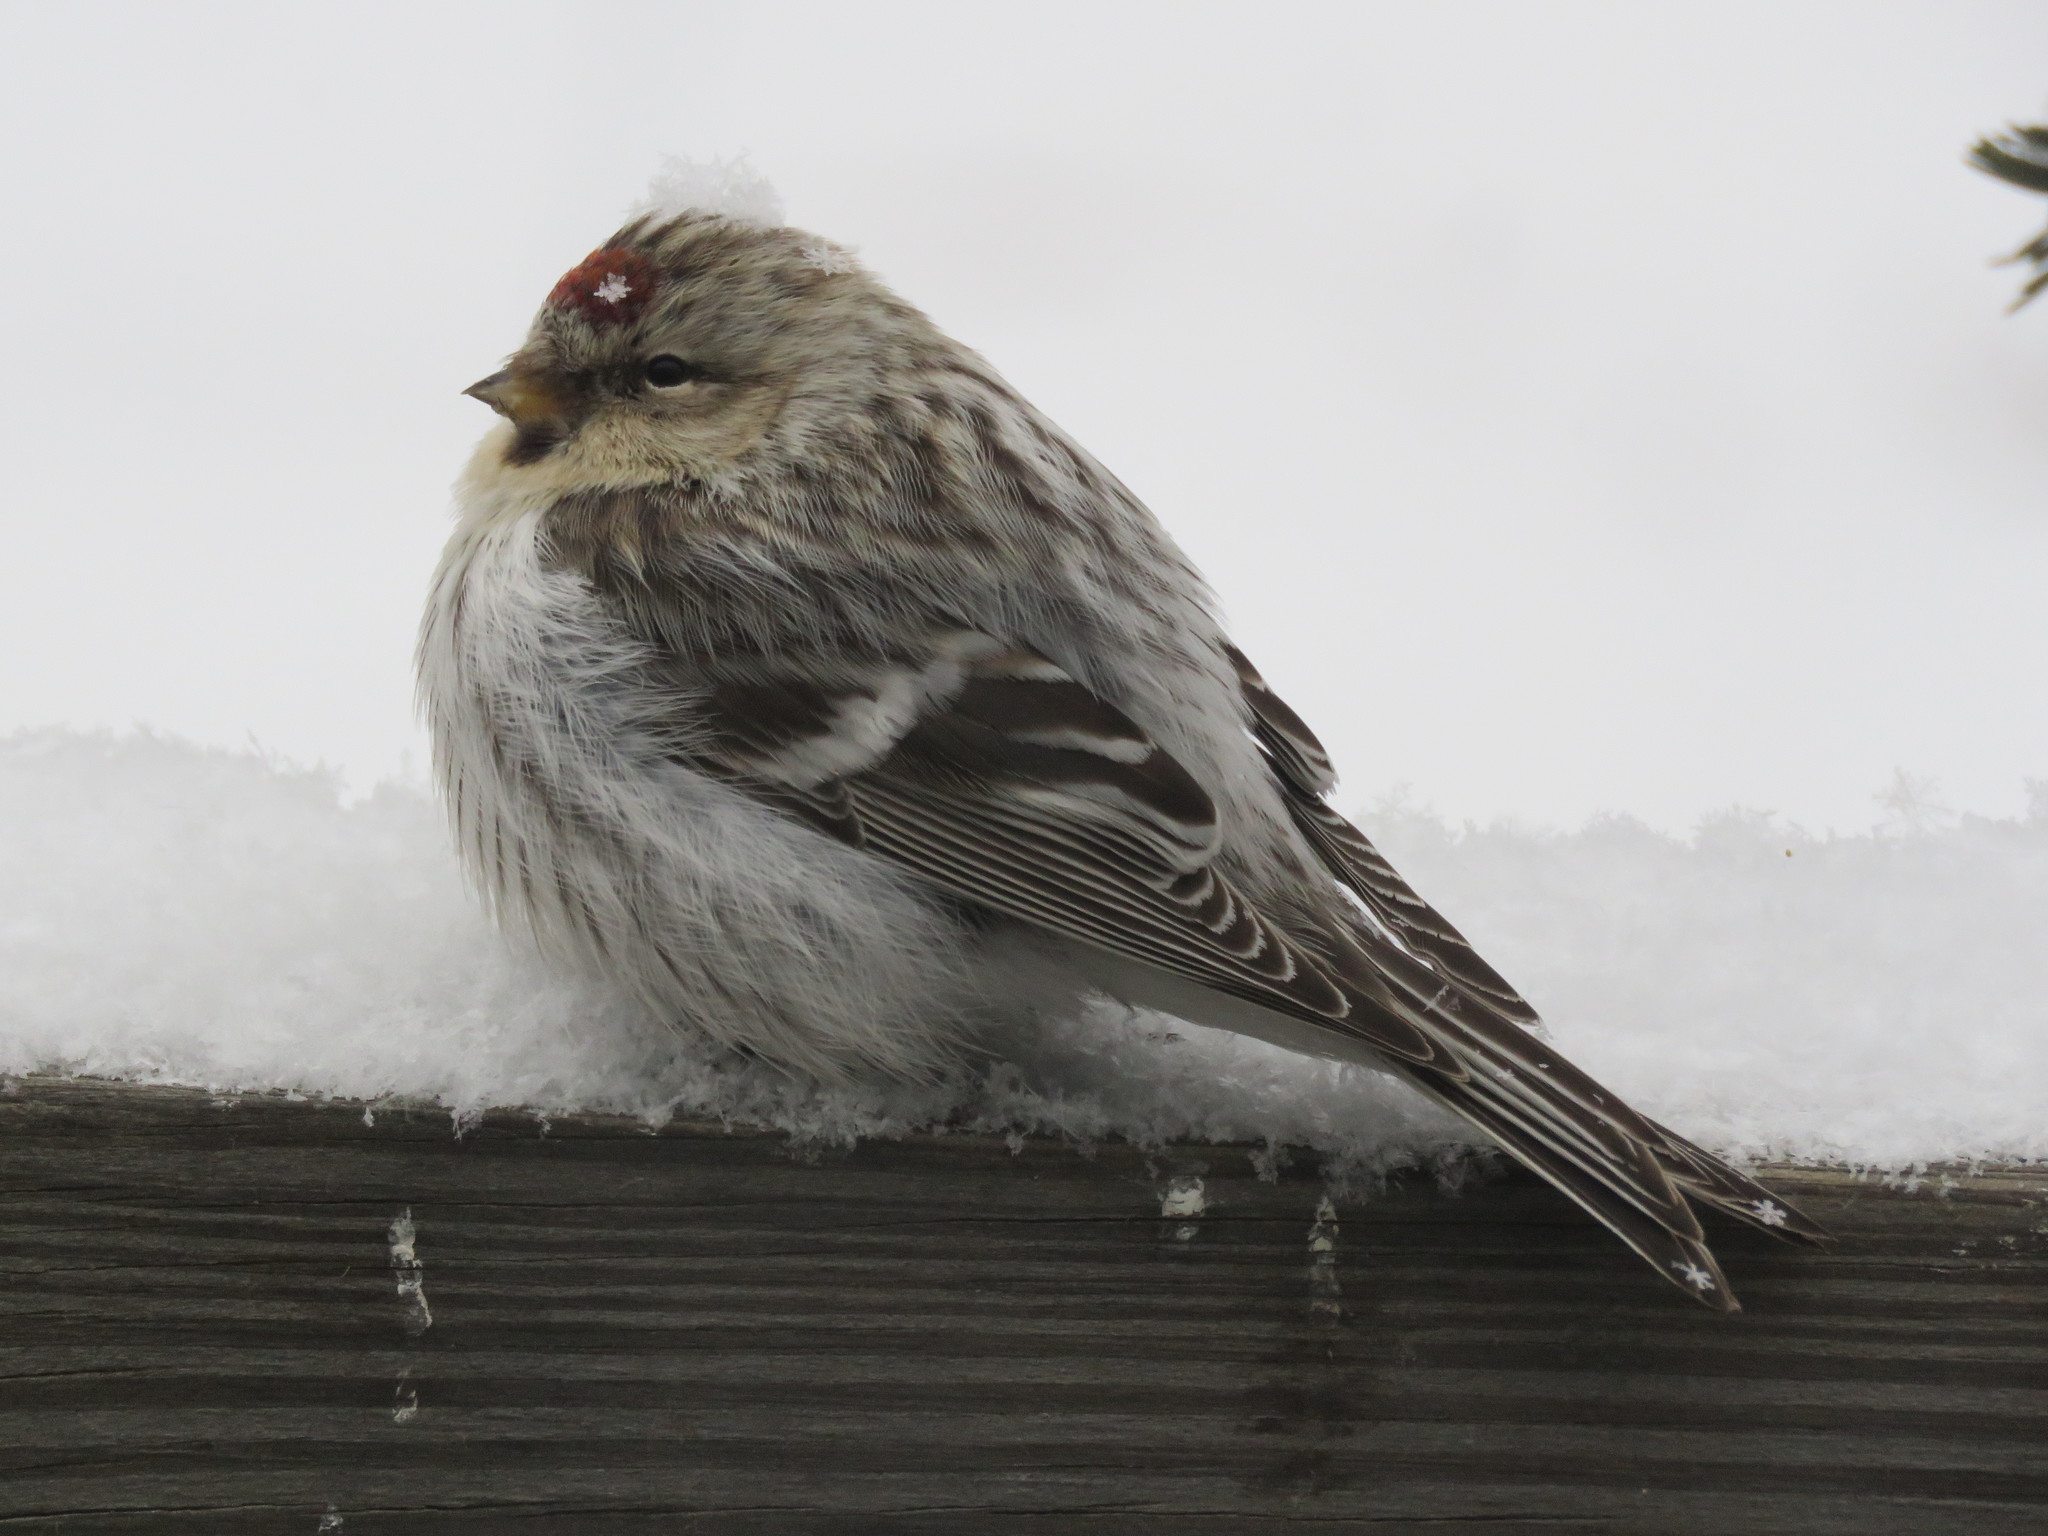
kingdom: Animalia
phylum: Chordata
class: Aves
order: Passeriformes
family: Fringillidae
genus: Acanthis
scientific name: Acanthis hornemanni
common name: Arctic redpoll
